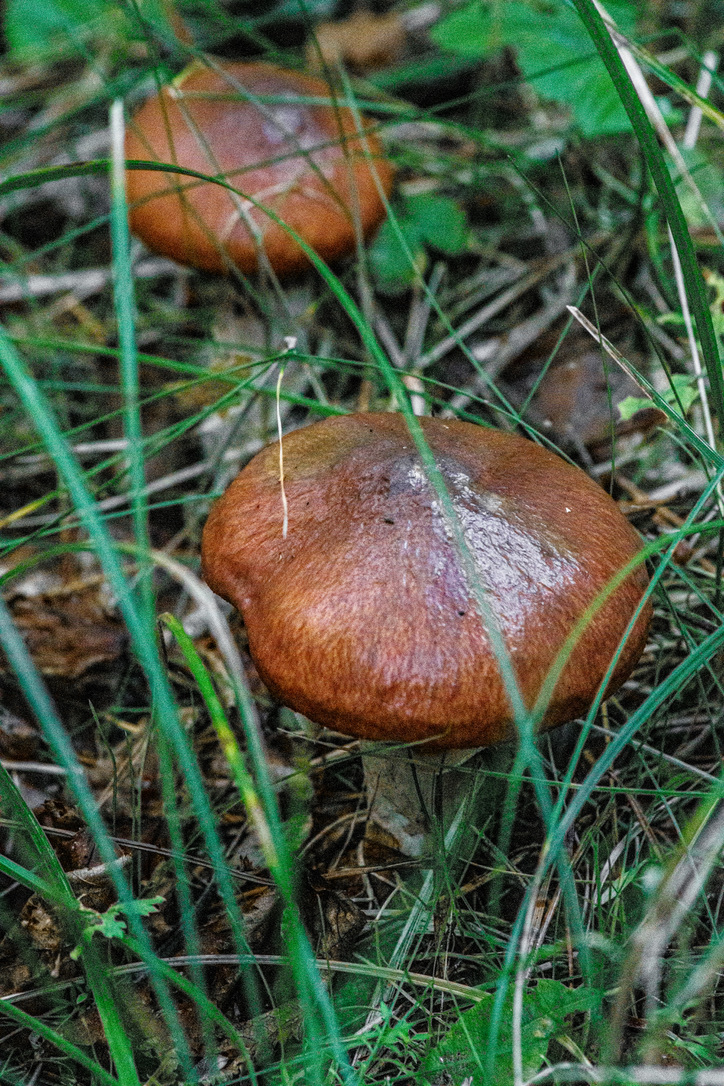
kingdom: Fungi
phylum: Basidiomycota
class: Agaricomycetes
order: Boletales
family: Suillaceae
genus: Suillus
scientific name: Suillus luteus
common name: Slippery jack
